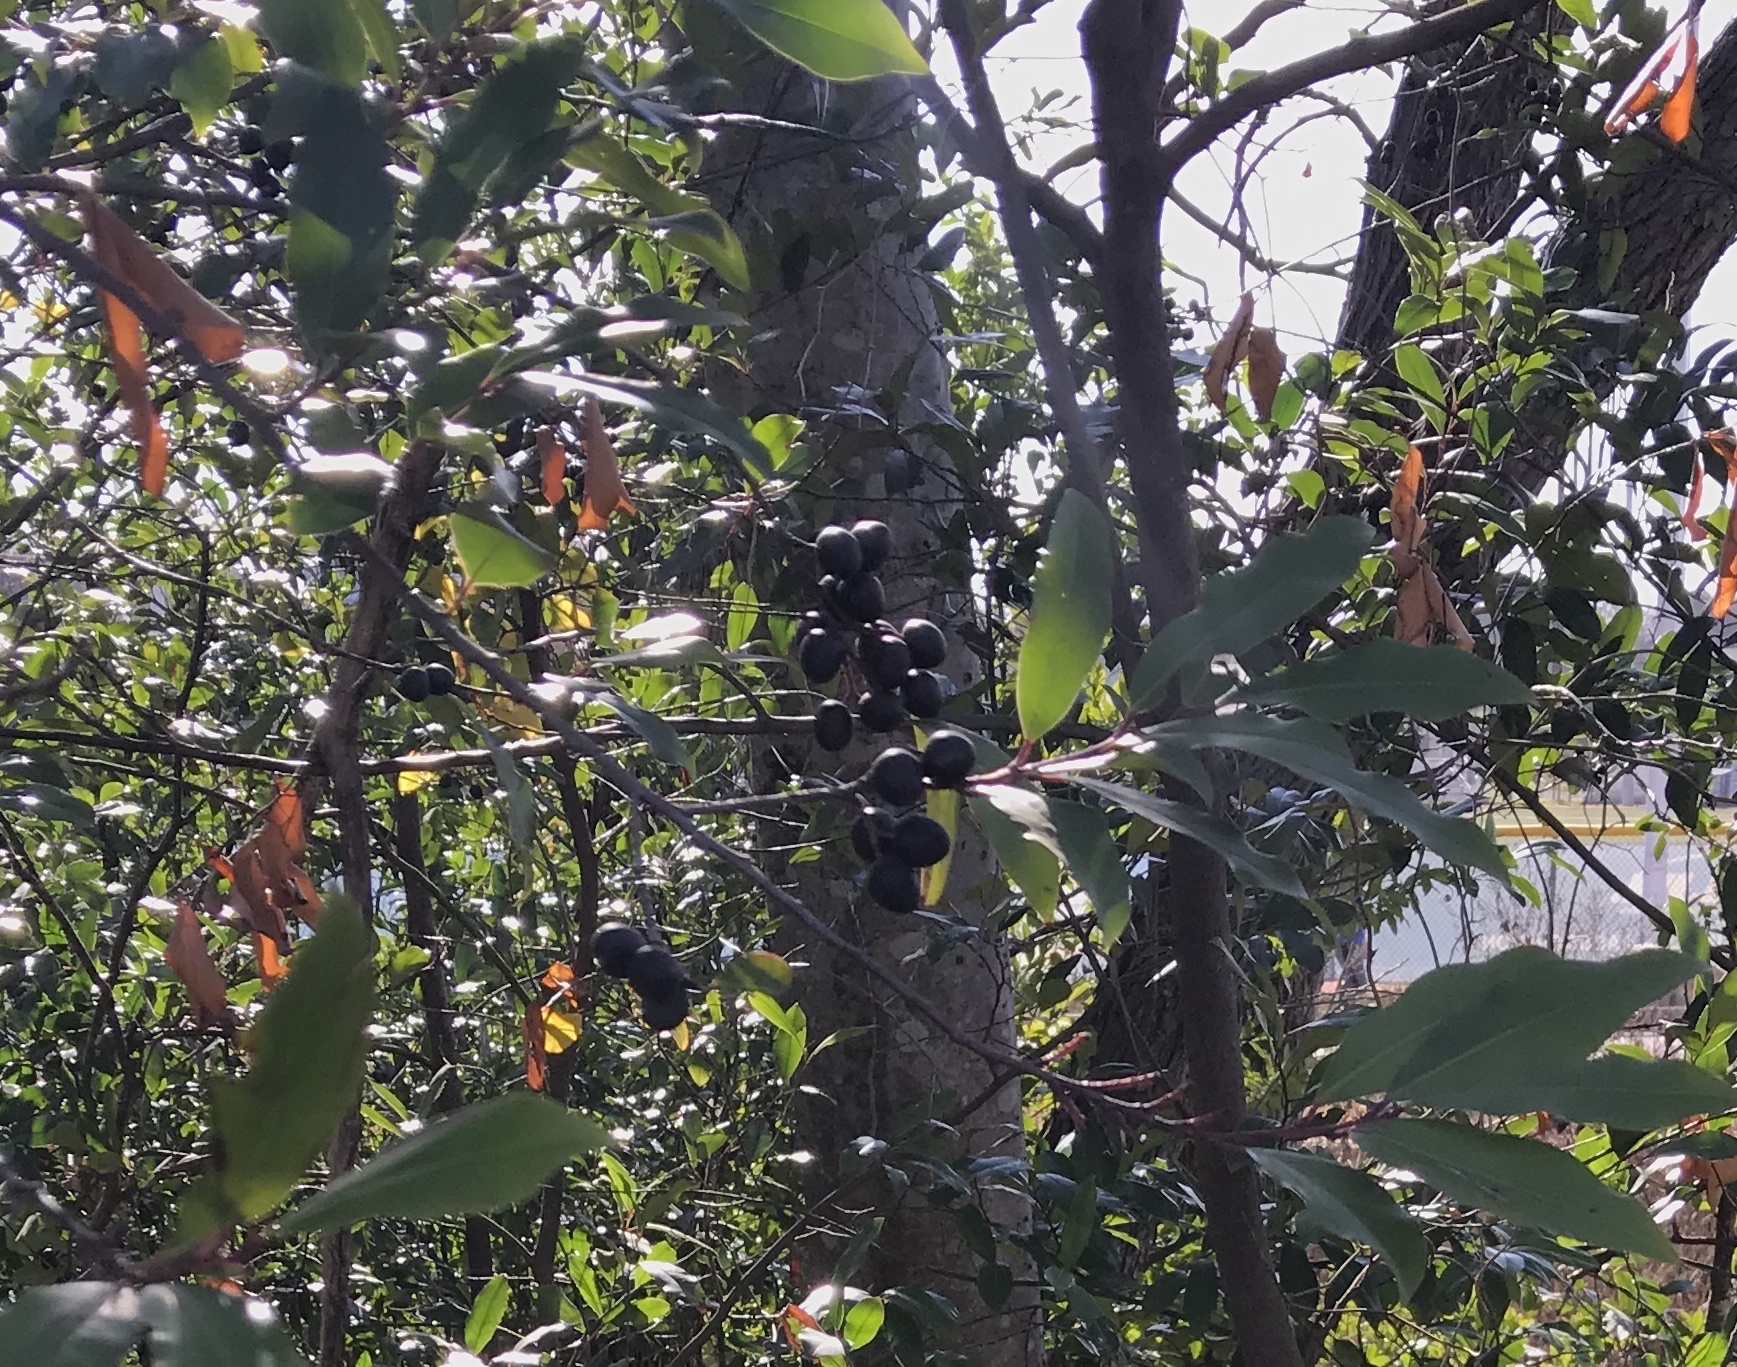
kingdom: Plantae
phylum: Tracheophyta
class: Magnoliopsida
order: Rosales
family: Rosaceae
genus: Prunus
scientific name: Prunus caroliniana
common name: Carolina laurel cherry
